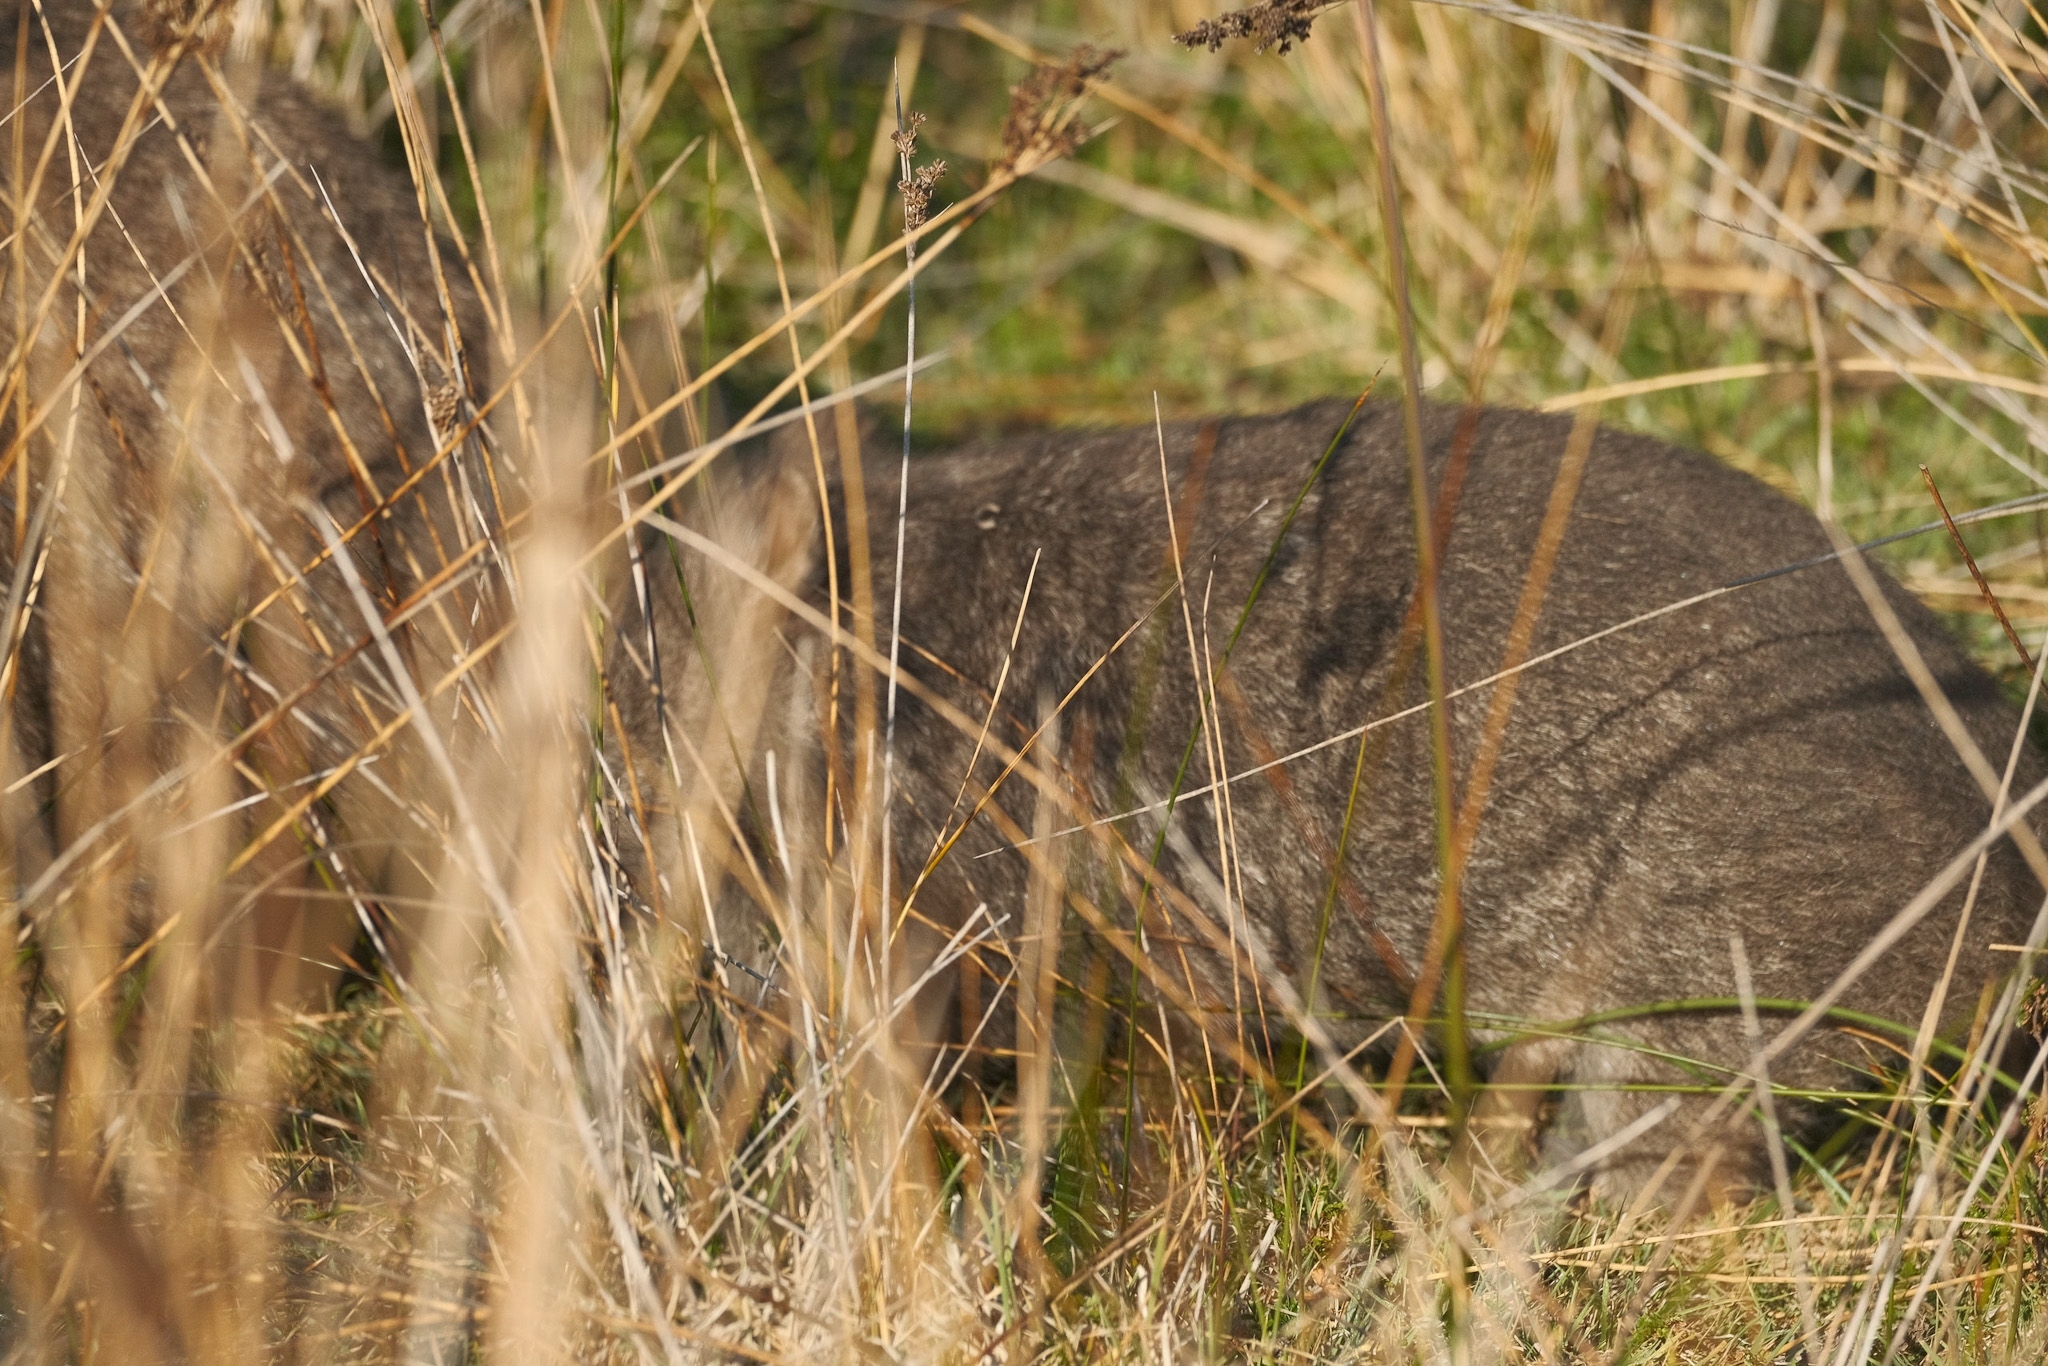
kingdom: Animalia
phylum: Chordata
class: Mammalia
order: Diprotodontia
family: Vombatidae
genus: Vombatus
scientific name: Vombatus ursinus
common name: Common wombat
